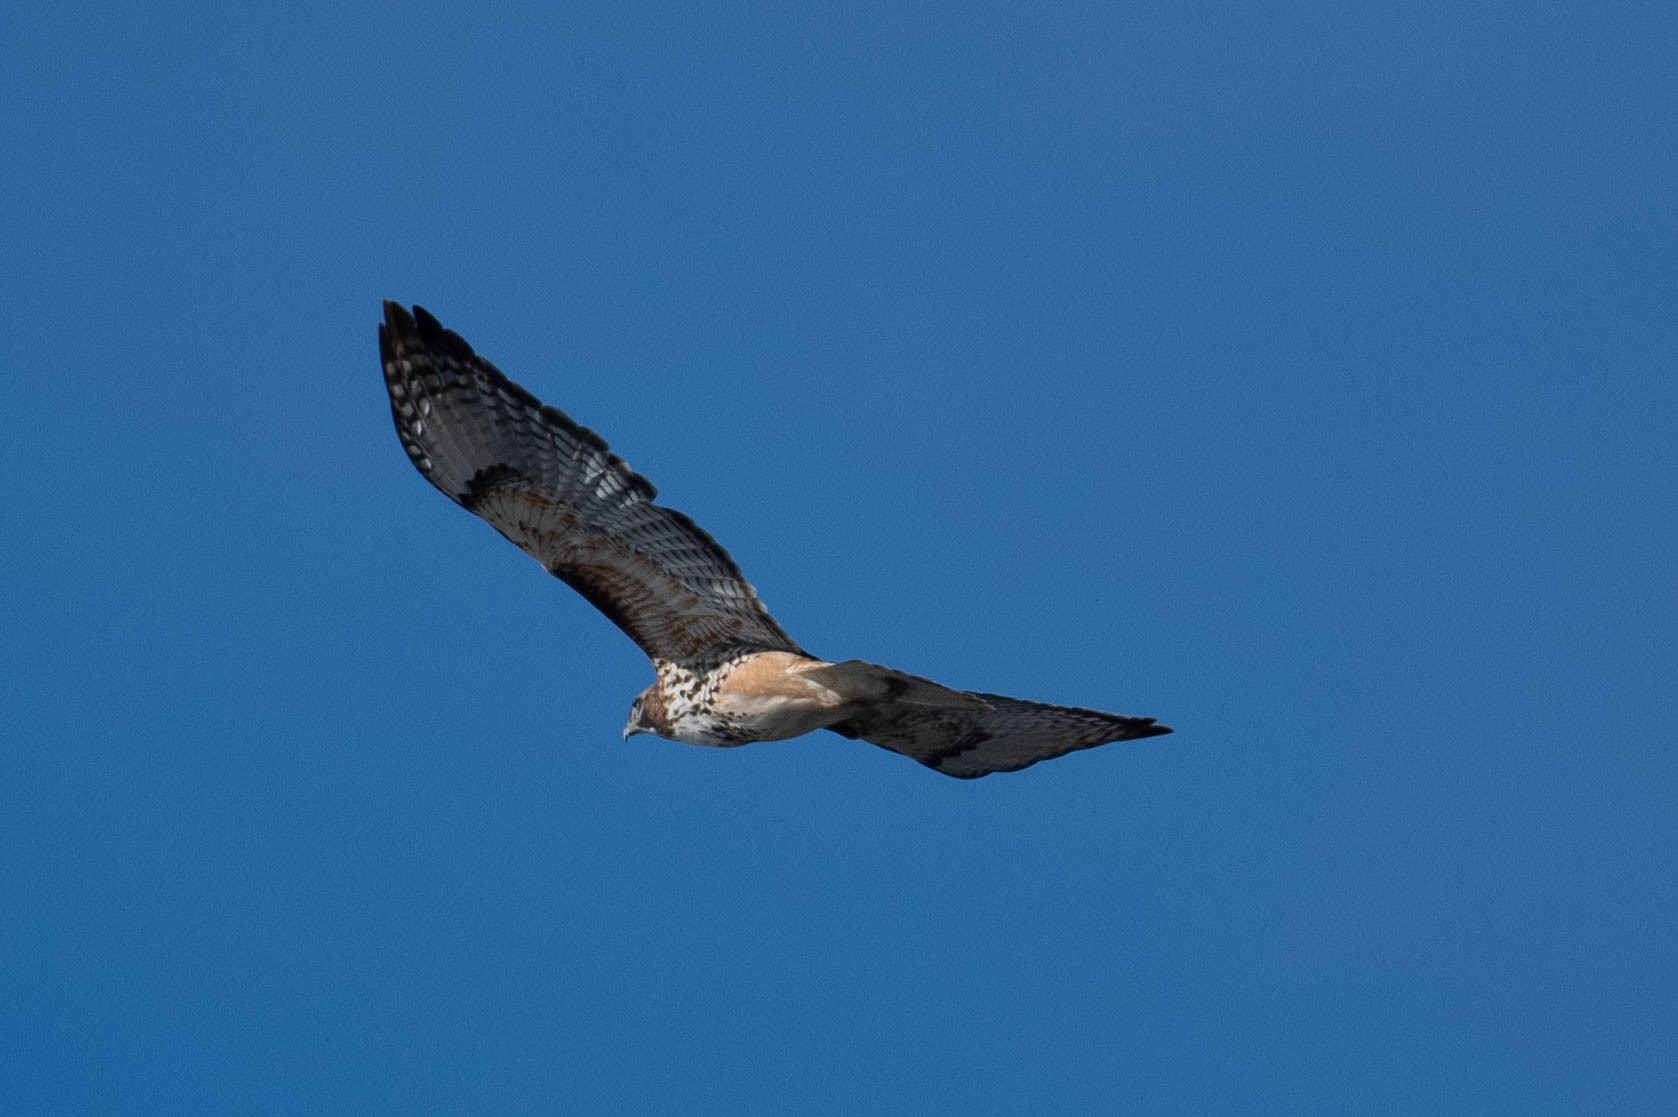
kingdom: Animalia
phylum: Chordata
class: Aves
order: Accipitriformes
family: Accipitridae
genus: Buteo
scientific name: Buteo jamaicensis
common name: Red-tailed hawk
